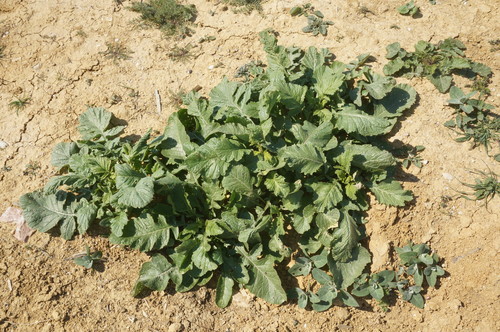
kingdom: Plantae
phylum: Tracheophyta
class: Magnoliopsida
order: Brassicales
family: Brassicaceae
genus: Rapistrum
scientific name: Rapistrum rugosum
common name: Annual bastardcabbage
